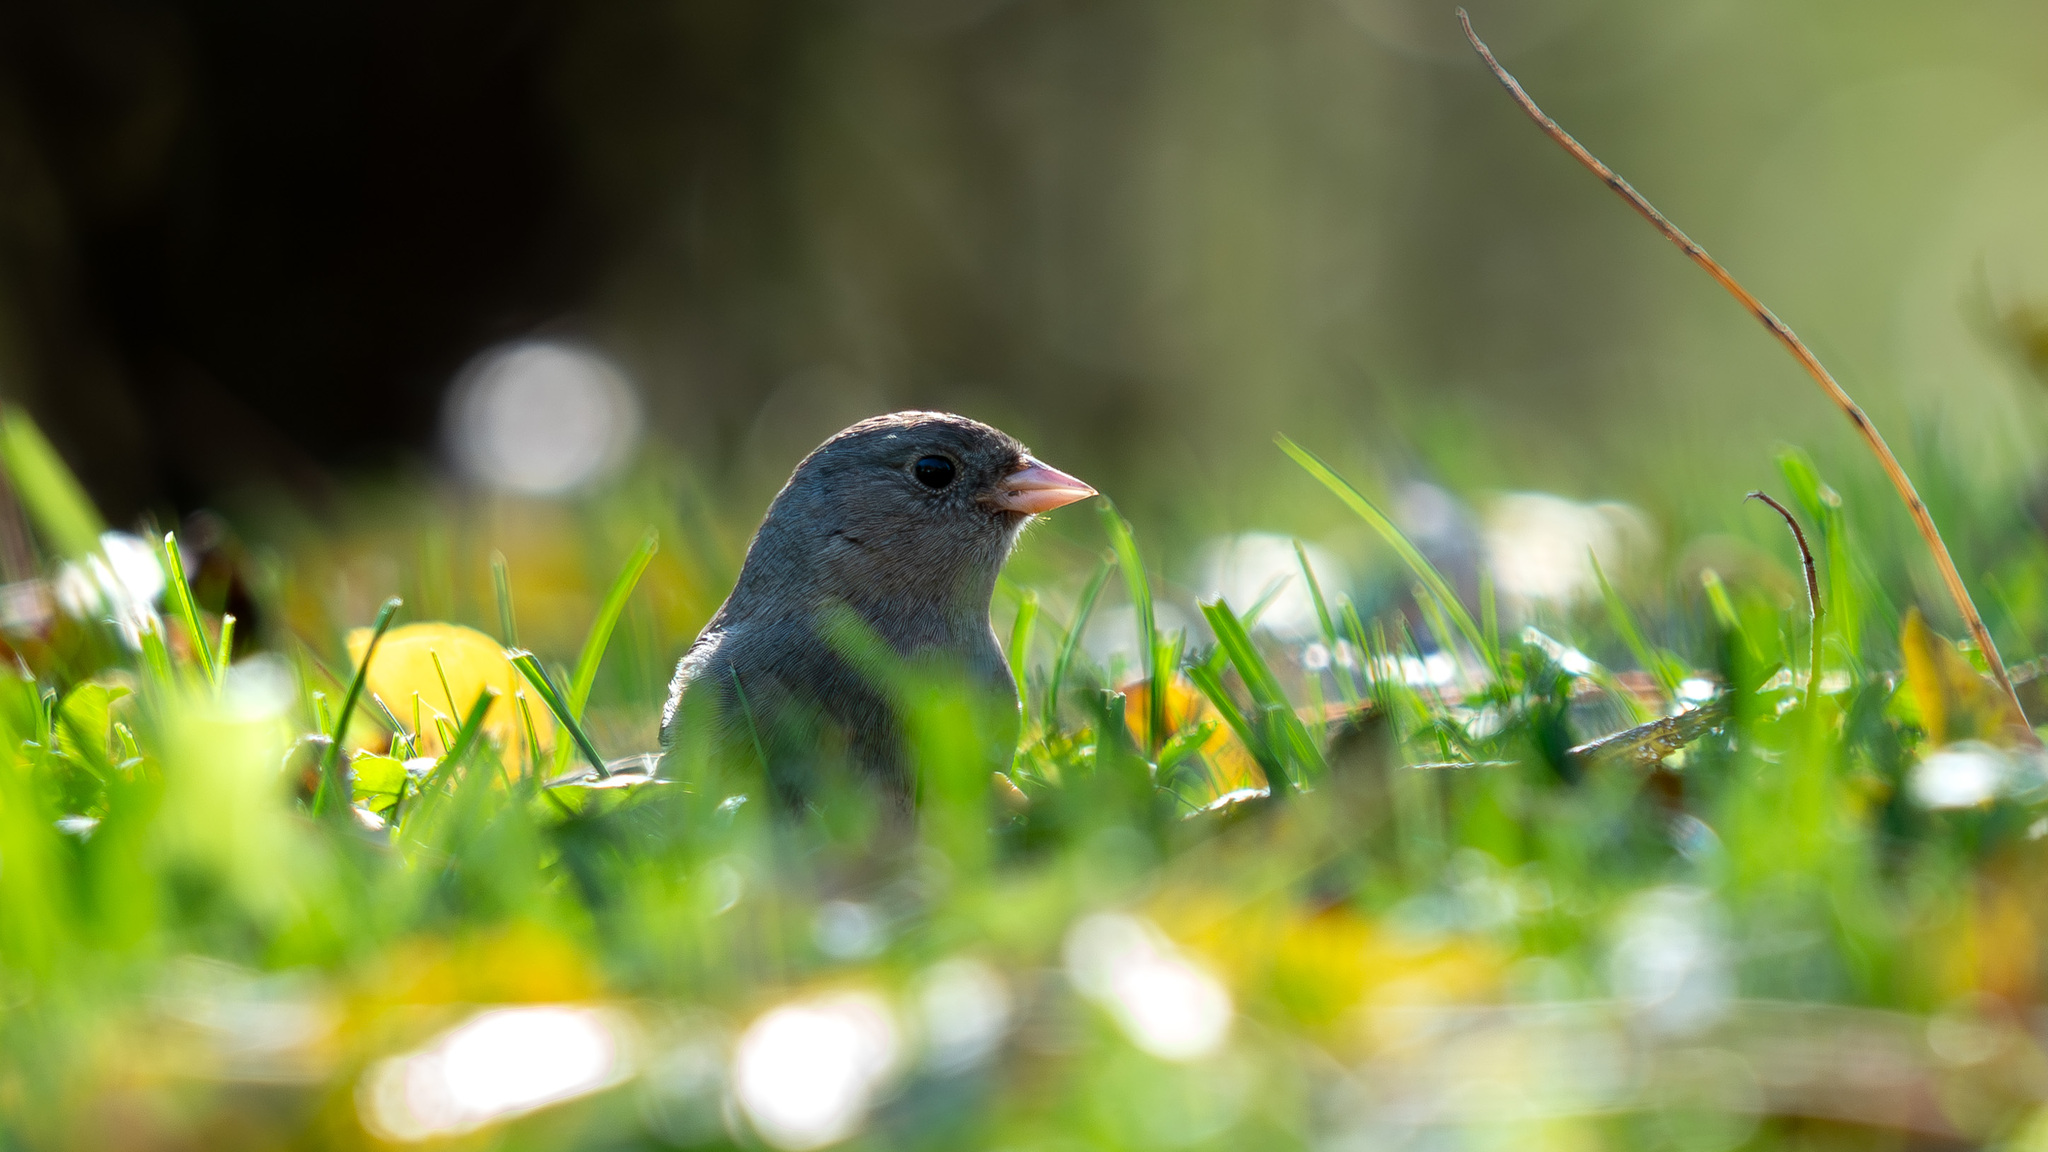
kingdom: Animalia
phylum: Chordata
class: Aves
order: Passeriformes
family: Passerellidae
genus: Junco
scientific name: Junco hyemalis
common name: Dark-eyed junco
